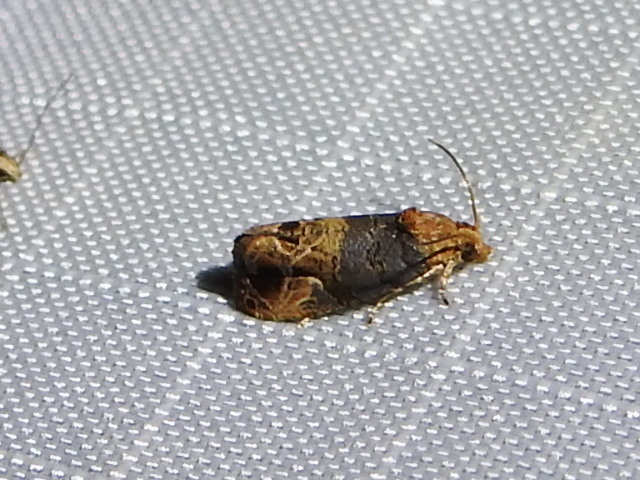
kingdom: Animalia
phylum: Arthropoda
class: Insecta
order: Lepidoptera
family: Tortricidae
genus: Paralobesia
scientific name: Paralobesia viteana
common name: Grape berry moth
